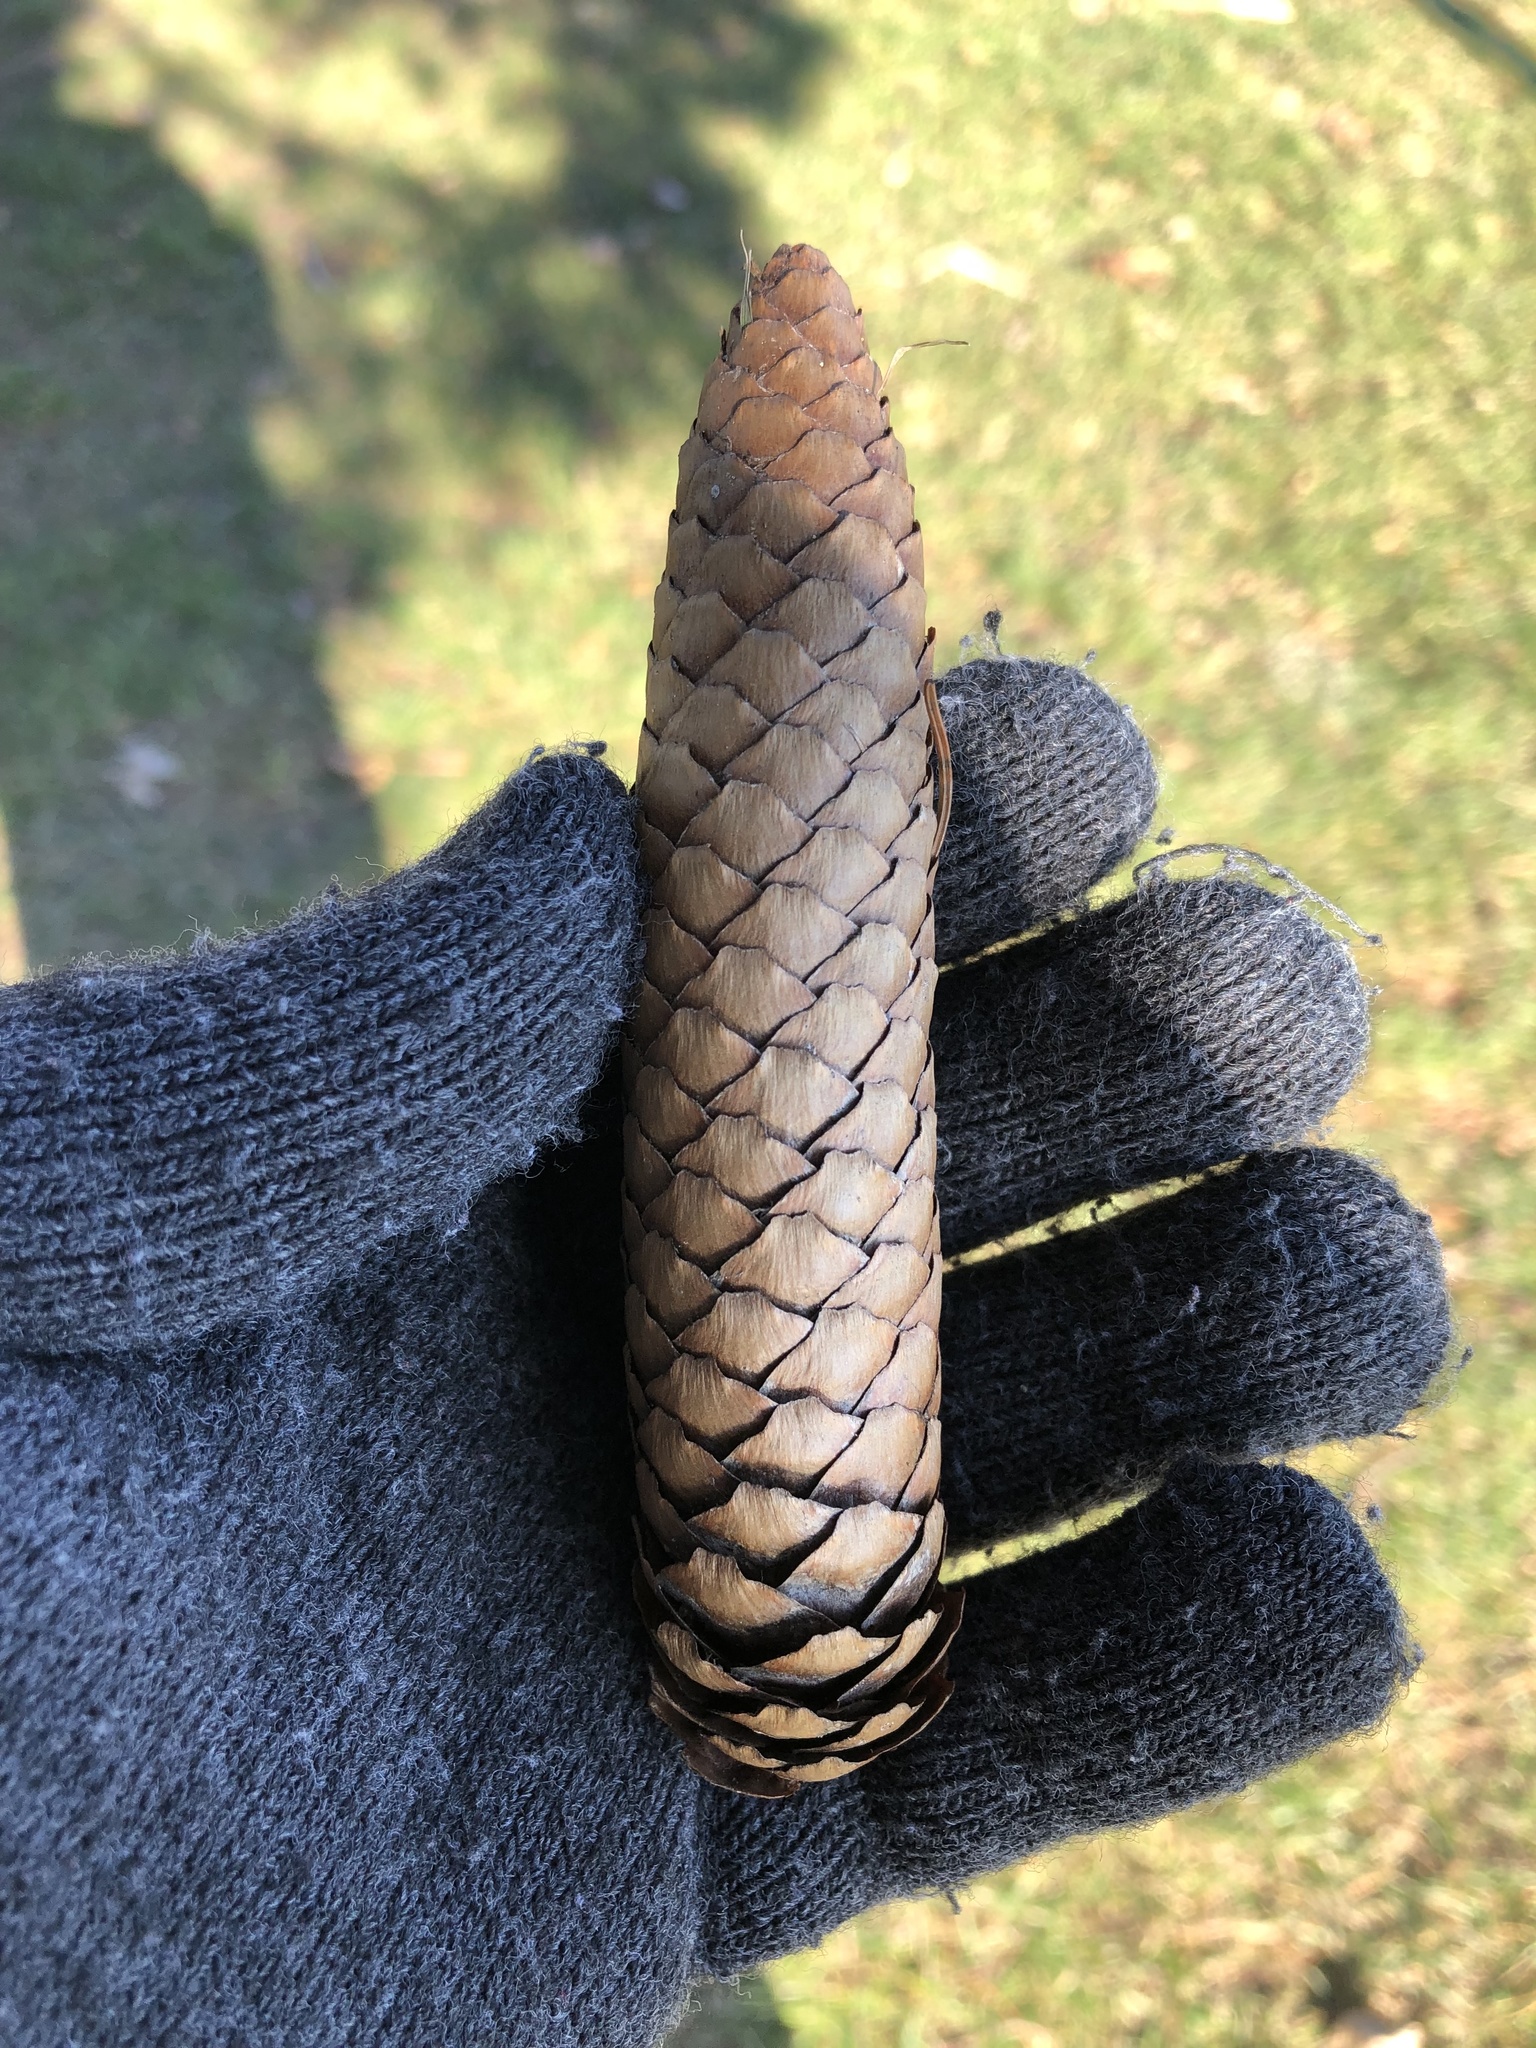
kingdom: Plantae
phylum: Tracheophyta
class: Pinopsida
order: Pinales
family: Pinaceae
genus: Picea
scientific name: Picea abies
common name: Norway spruce
